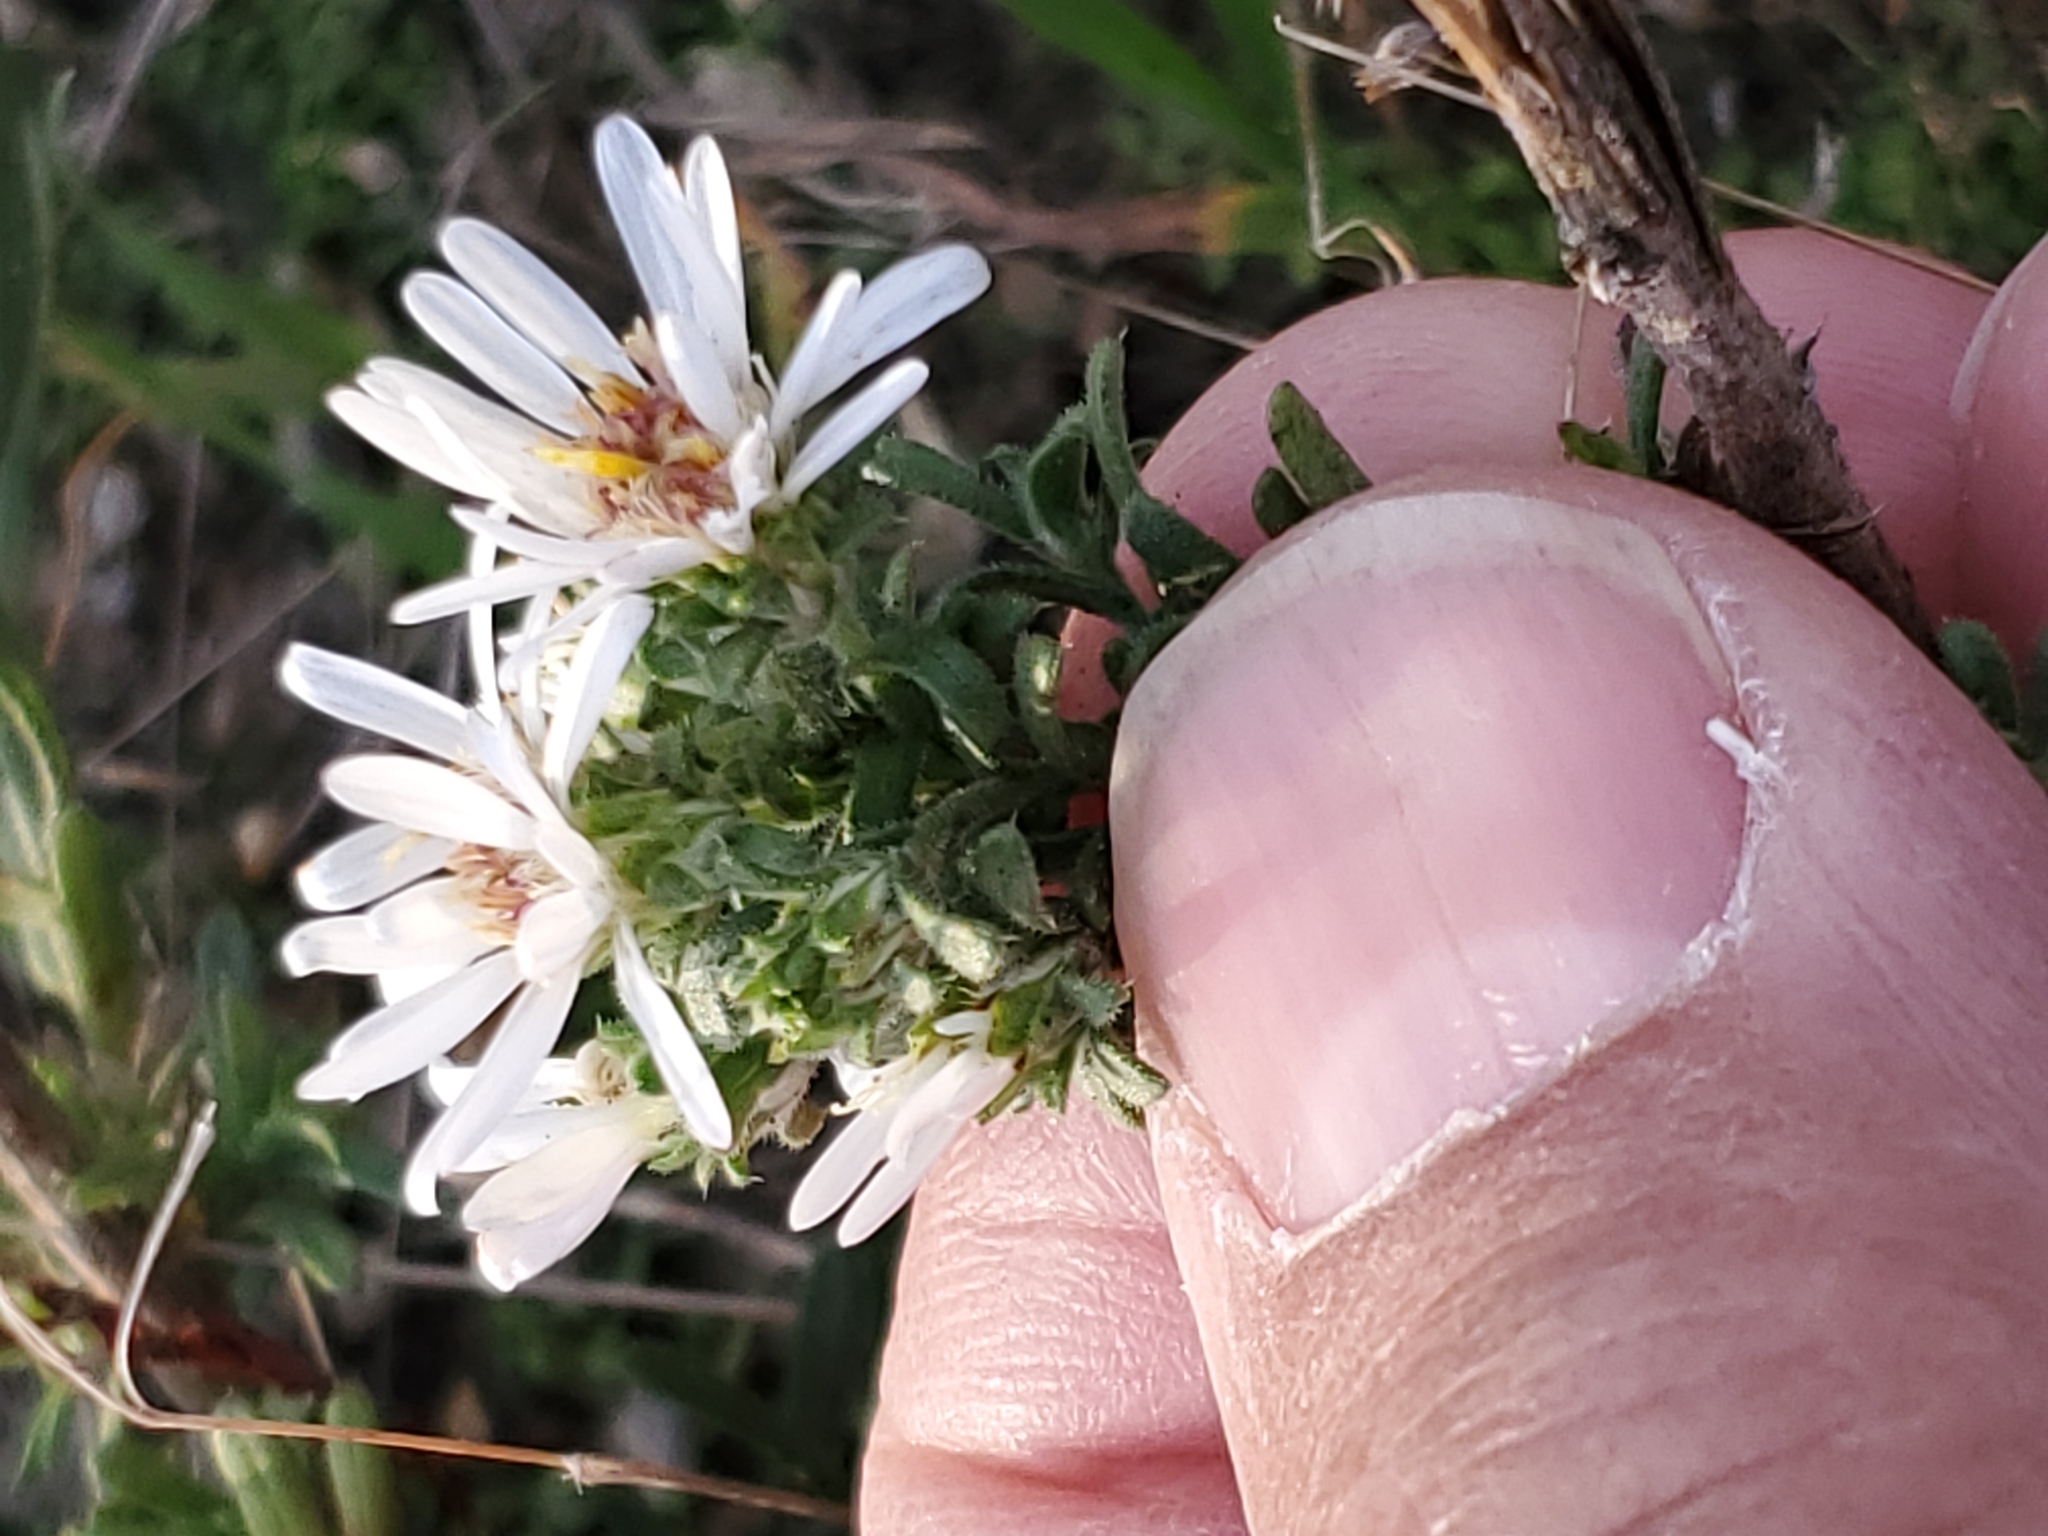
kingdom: Plantae
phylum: Tracheophyta
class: Magnoliopsida
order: Asterales
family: Asteraceae
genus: Symphyotrichum
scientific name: Symphyotrichum falcatum
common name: Creeping white prairie aster
